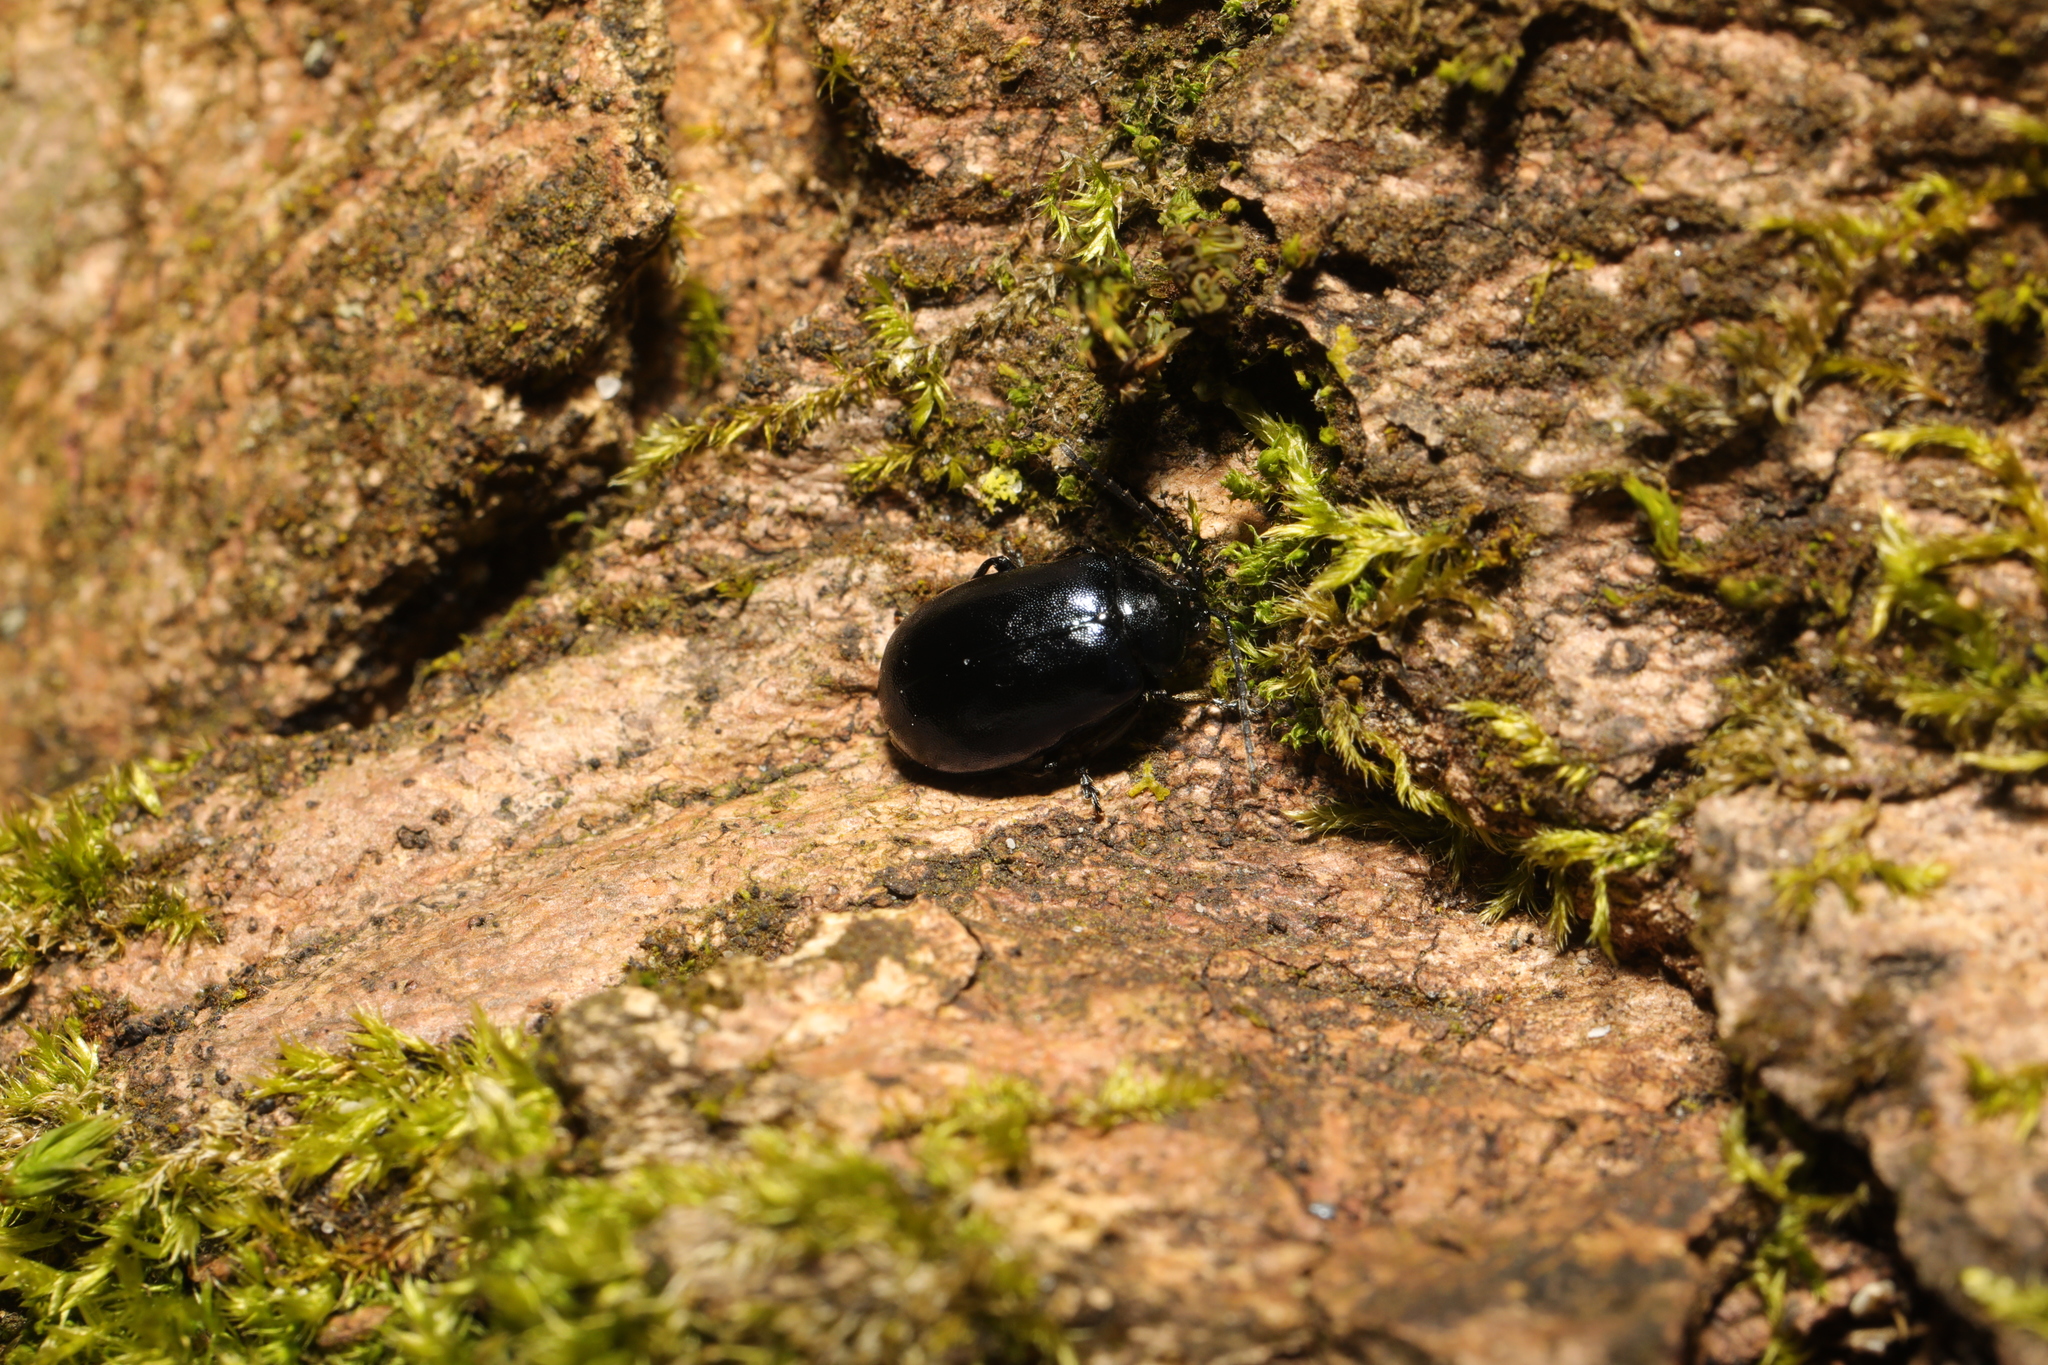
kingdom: Animalia
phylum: Arthropoda
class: Insecta
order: Coleoptera
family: Chrysomelidae
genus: Agelastica
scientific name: Agelastica alni
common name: Alder leaf beetle
